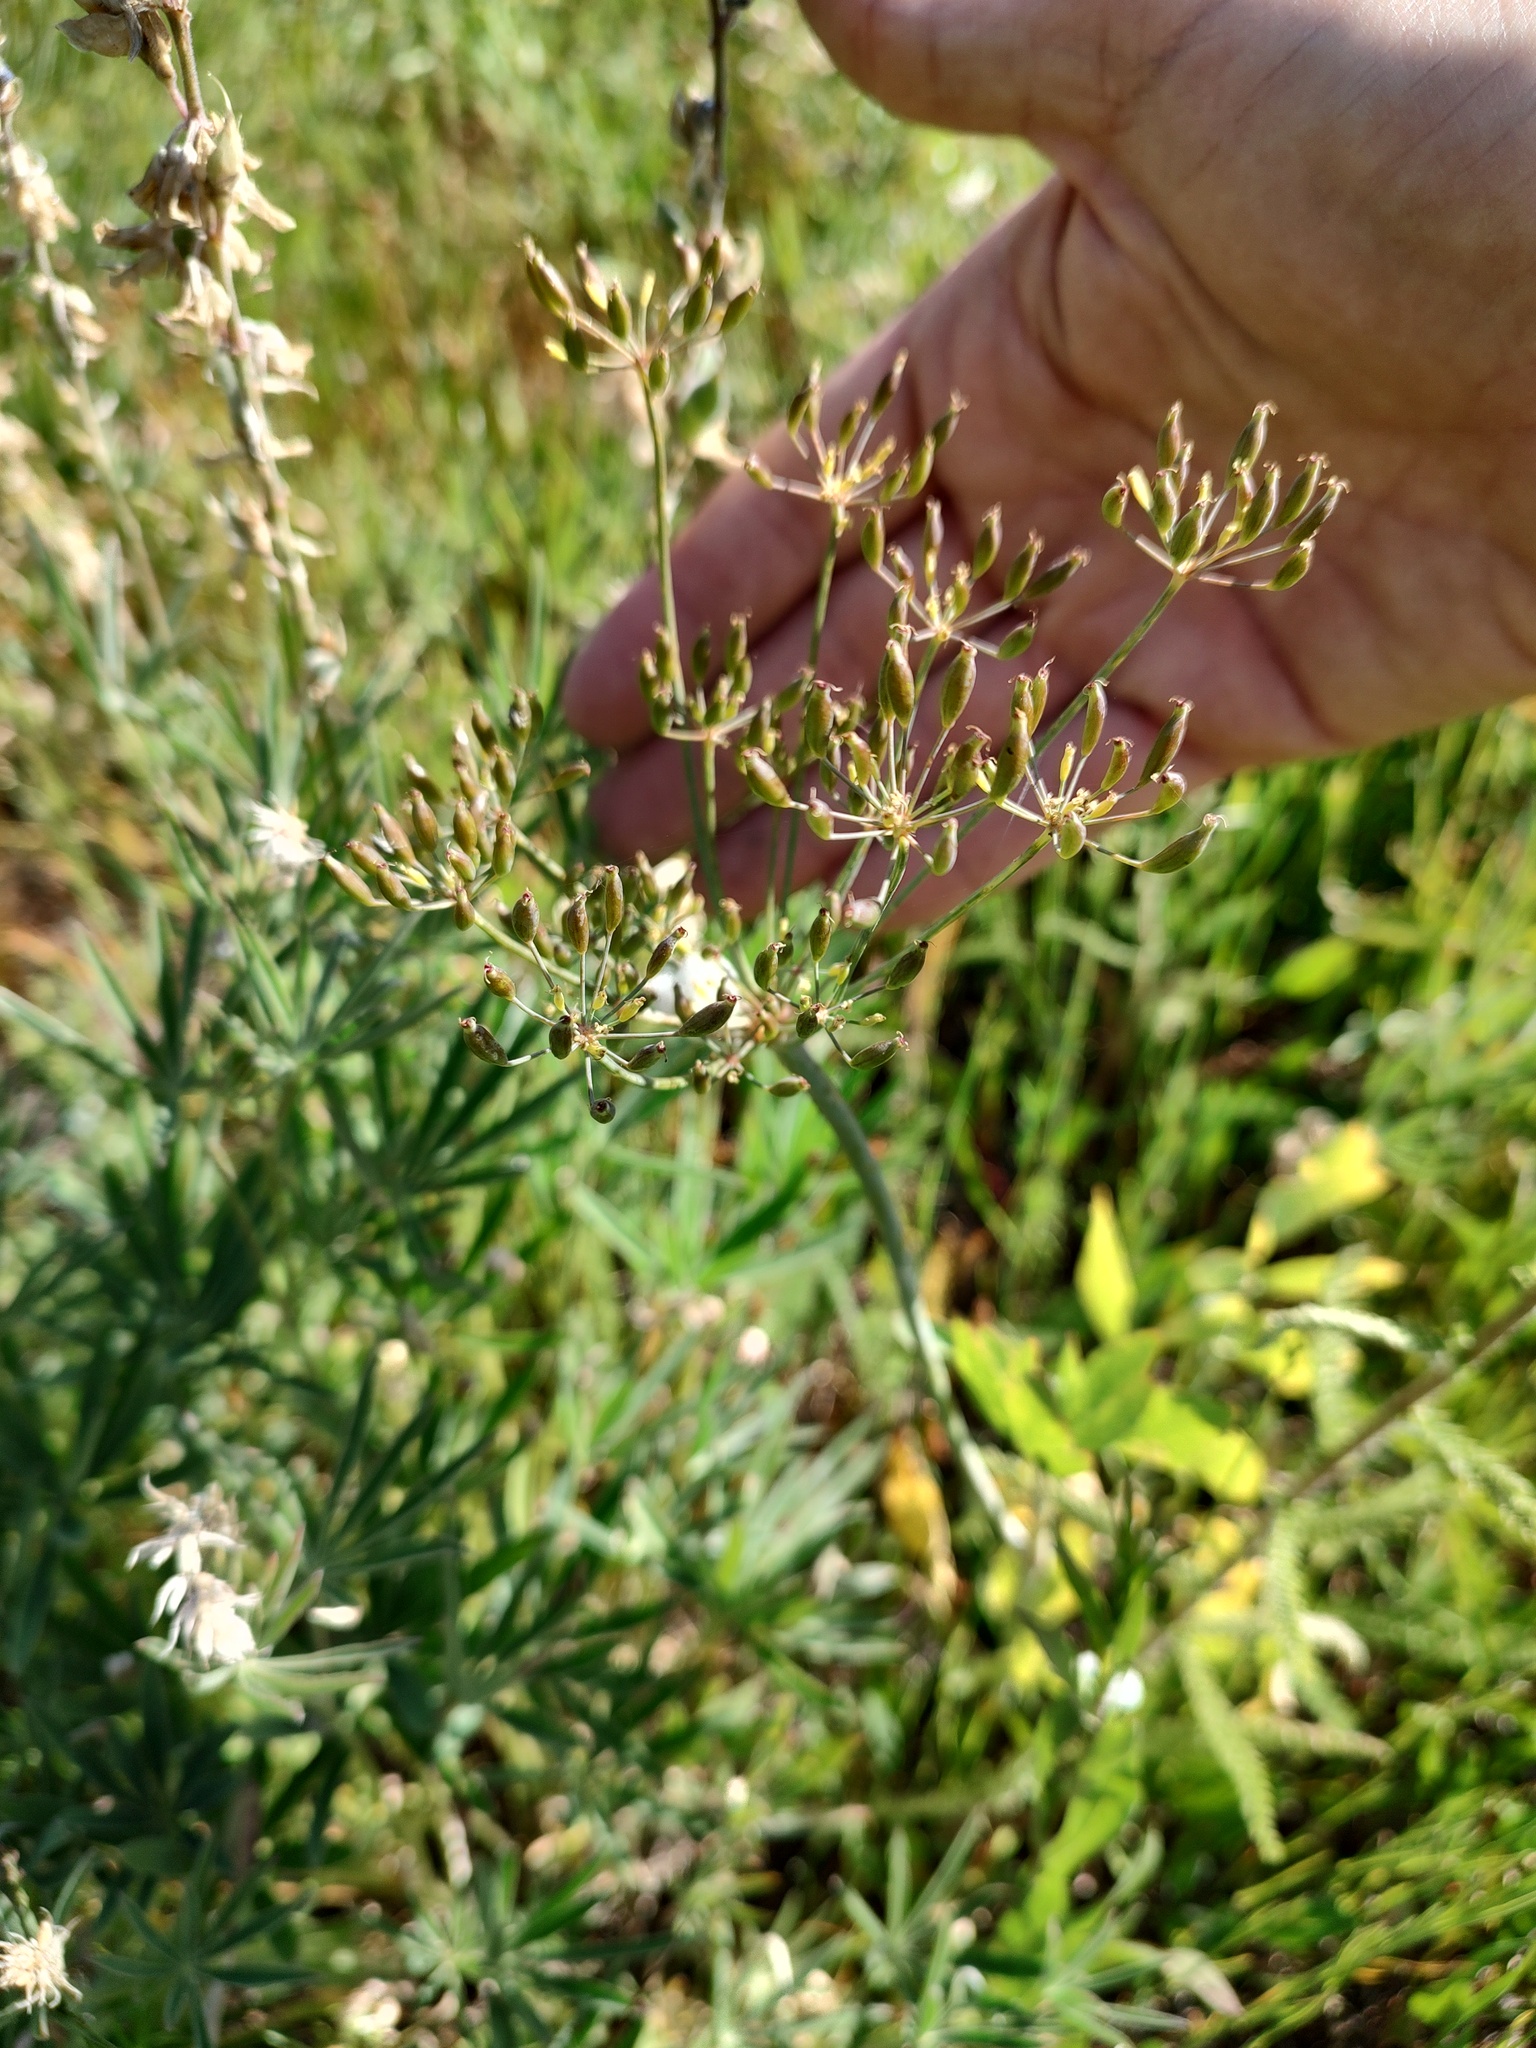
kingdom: Plantae
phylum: Tracheophyta
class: Magnoliopsida
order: Apiales
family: Apiaceae
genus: Lomatium
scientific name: Lomatium nudicaule
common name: Pestle lomatium
